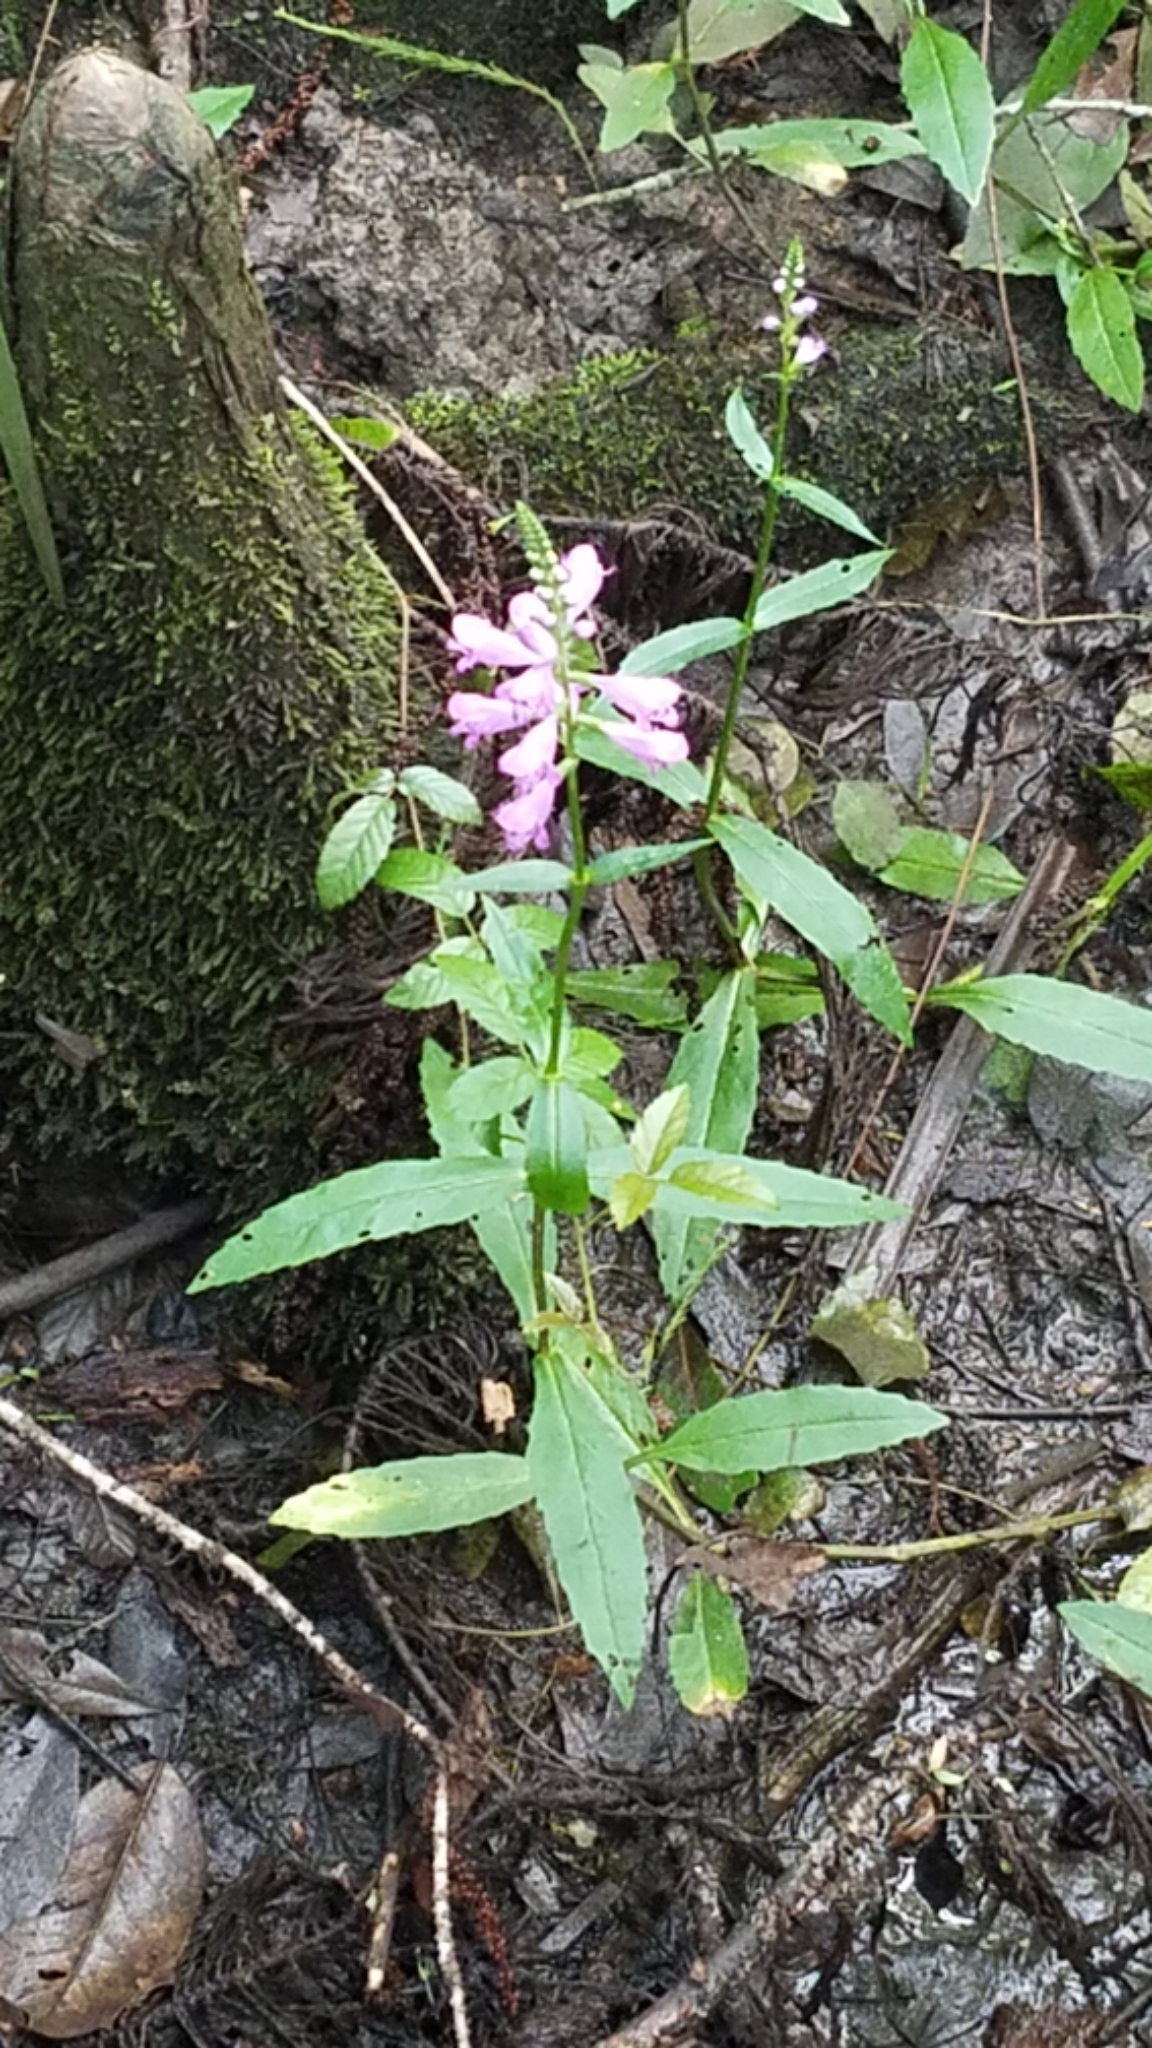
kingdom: Plantae
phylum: Tracheophyta
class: Magnoliopsida
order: Lamiales
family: Lamiaceae
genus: Physostegia
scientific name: Physostegia virginiana
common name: Obedient-plant
